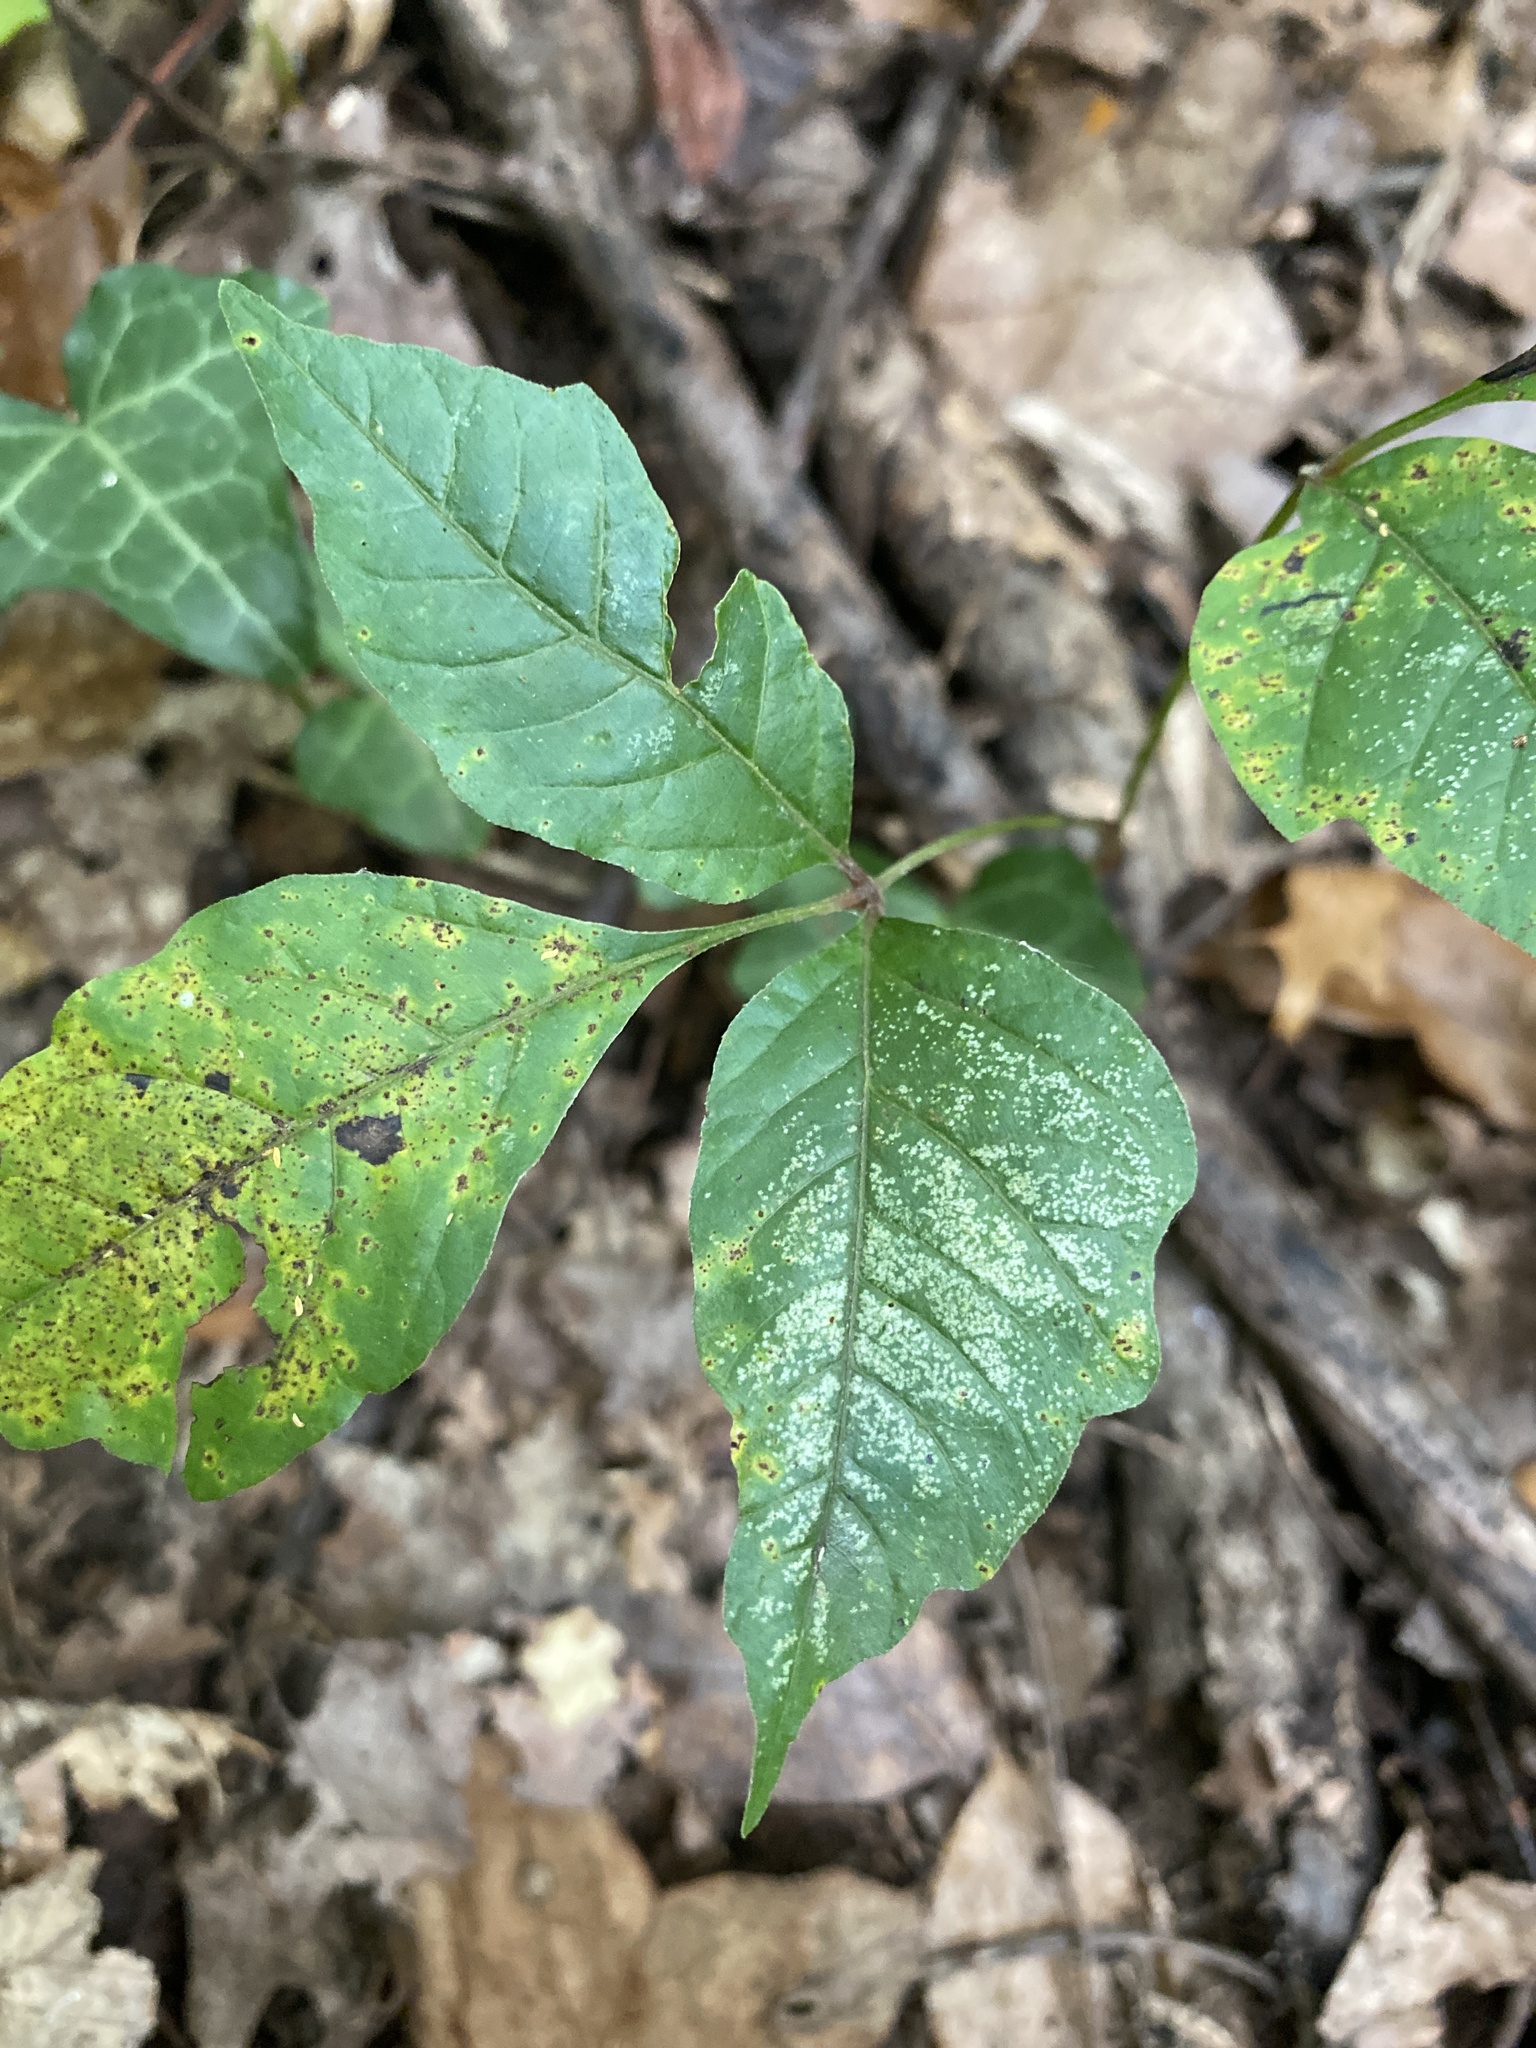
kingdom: Plantae
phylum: Tracheophyta
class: Magnoliopsida
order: Sapindales
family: Anacardiaceae
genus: Toxicodendron
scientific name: Toxicodendron radicans
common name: Poison ivy
